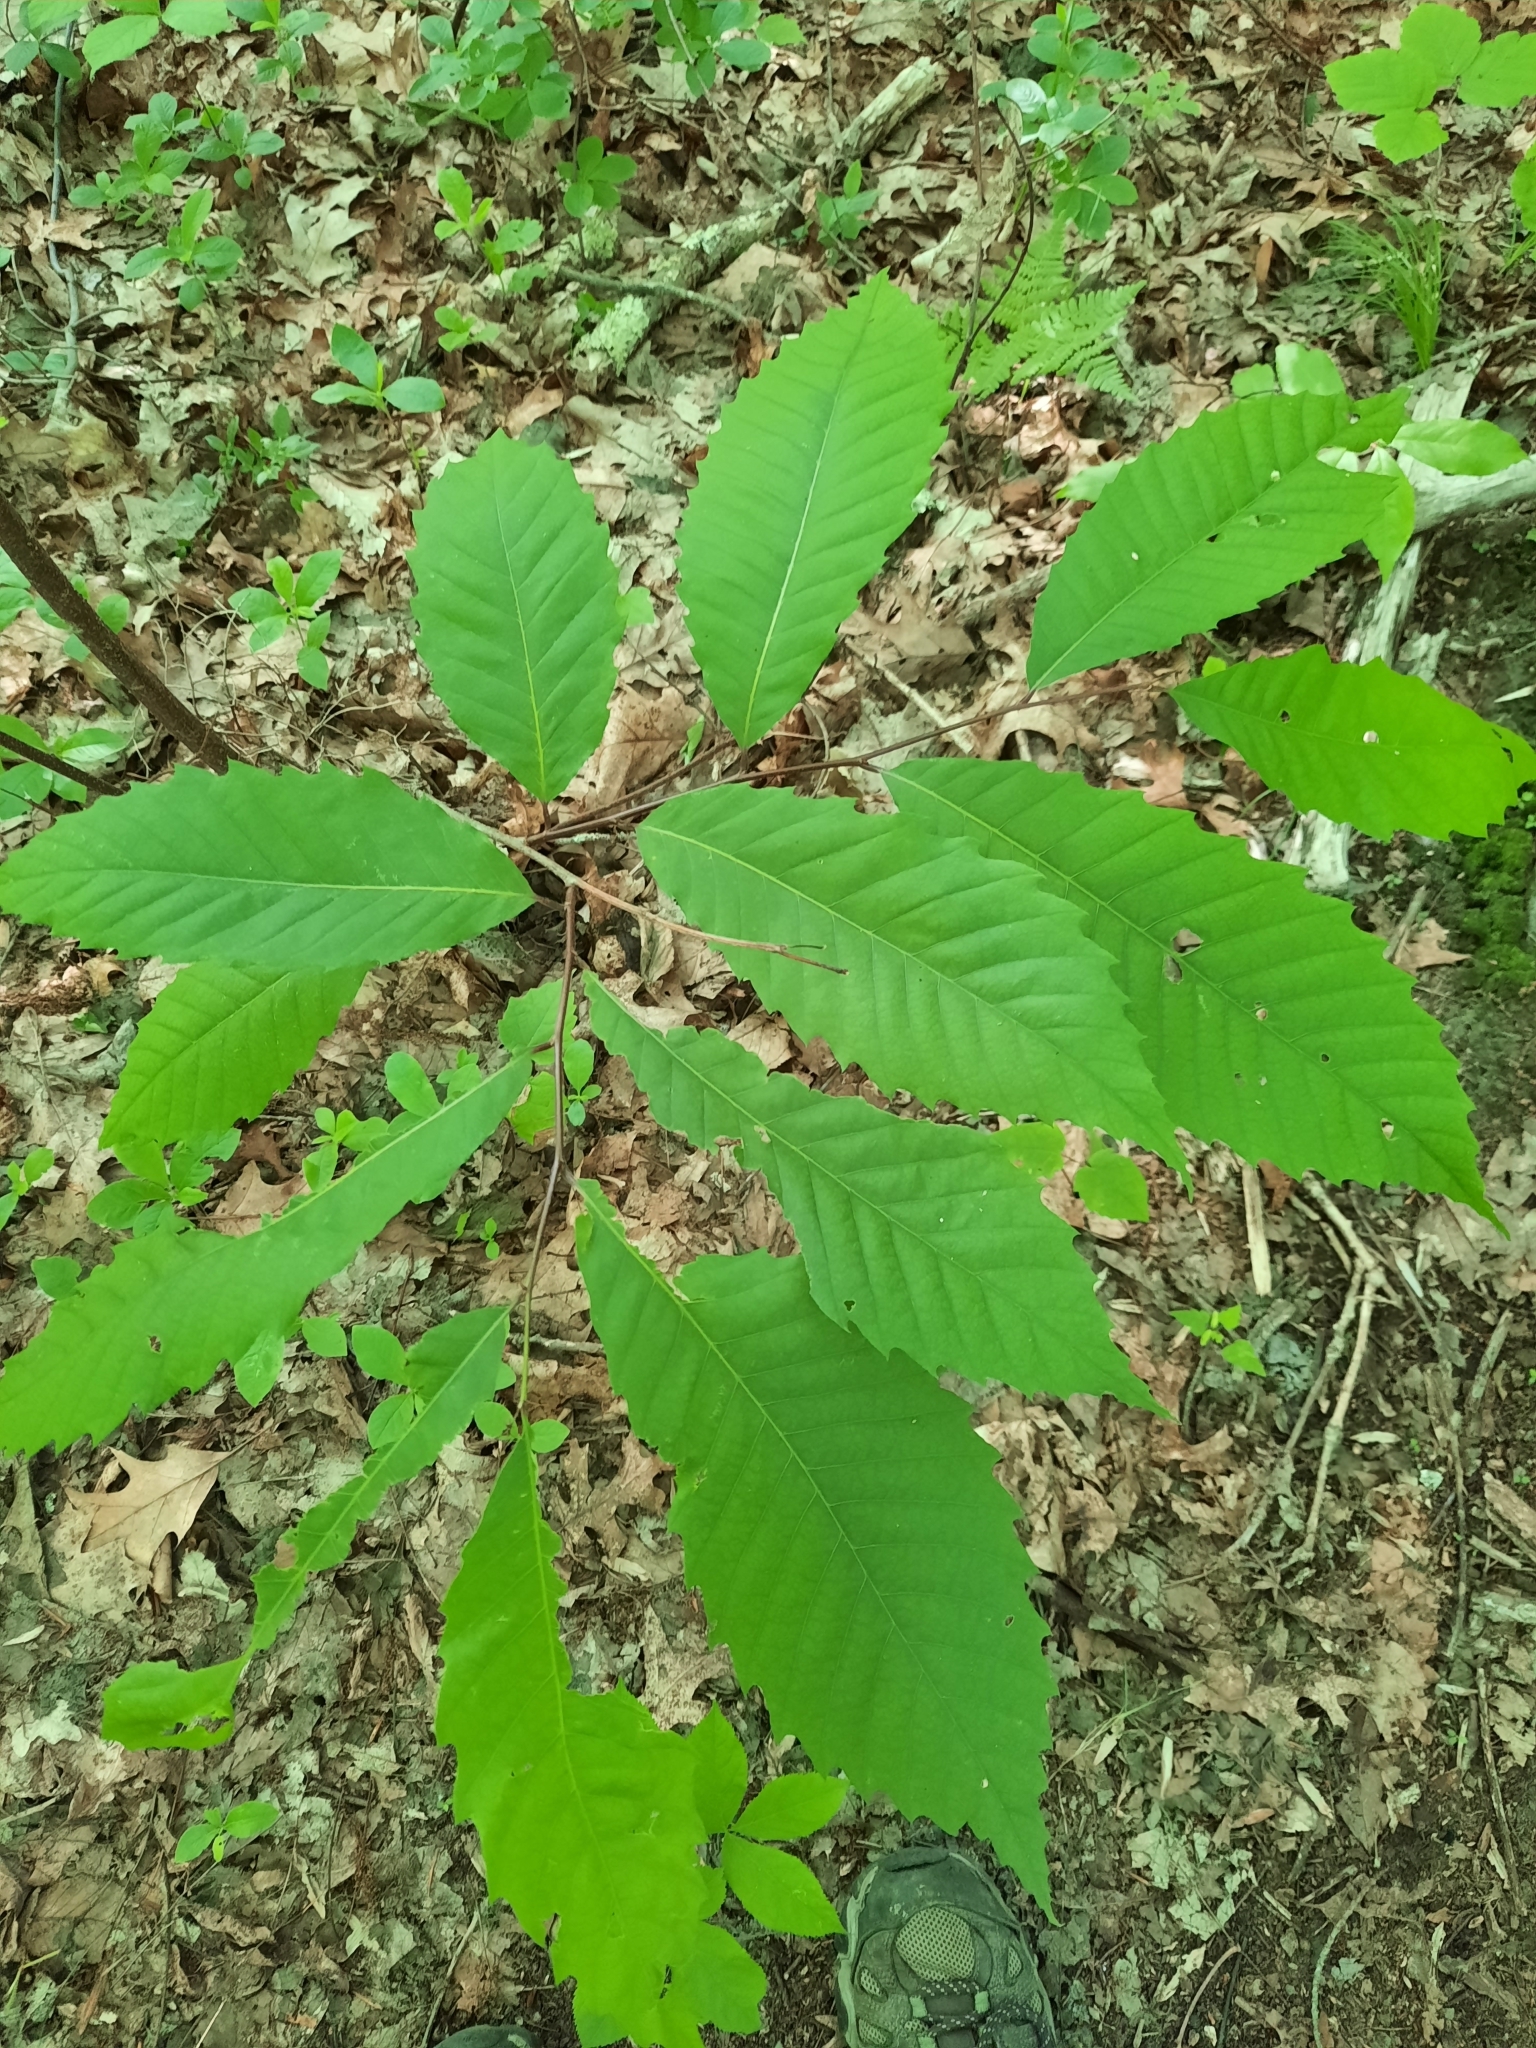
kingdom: Plantae
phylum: Tracheophyta
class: Magnoliopsida
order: Fagales
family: Fagaceae
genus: Castanea
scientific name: Castanea dentata
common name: American chestnut
